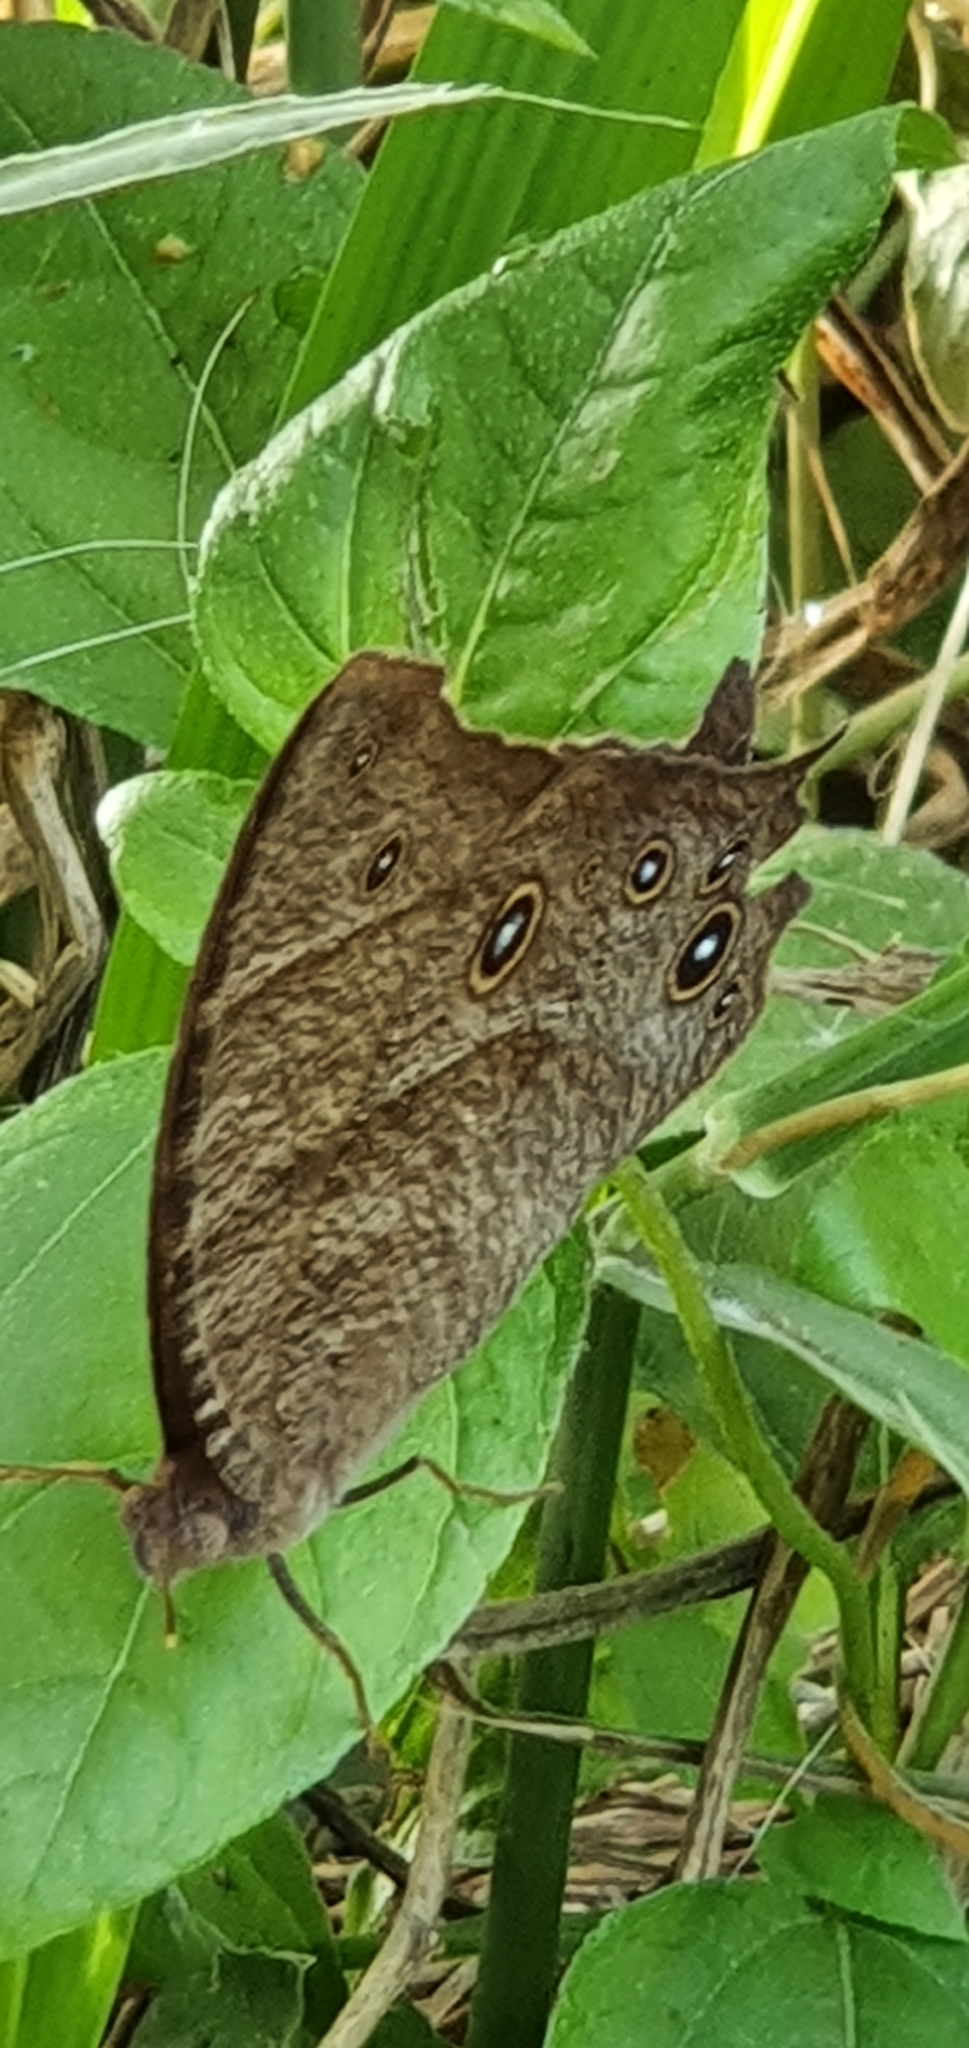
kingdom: Animalia
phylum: Arthropoda
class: Insecta
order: Lepidoptera
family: Nymphalidae
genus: Melanitis
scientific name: Melanitis leda
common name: Twilight brown
